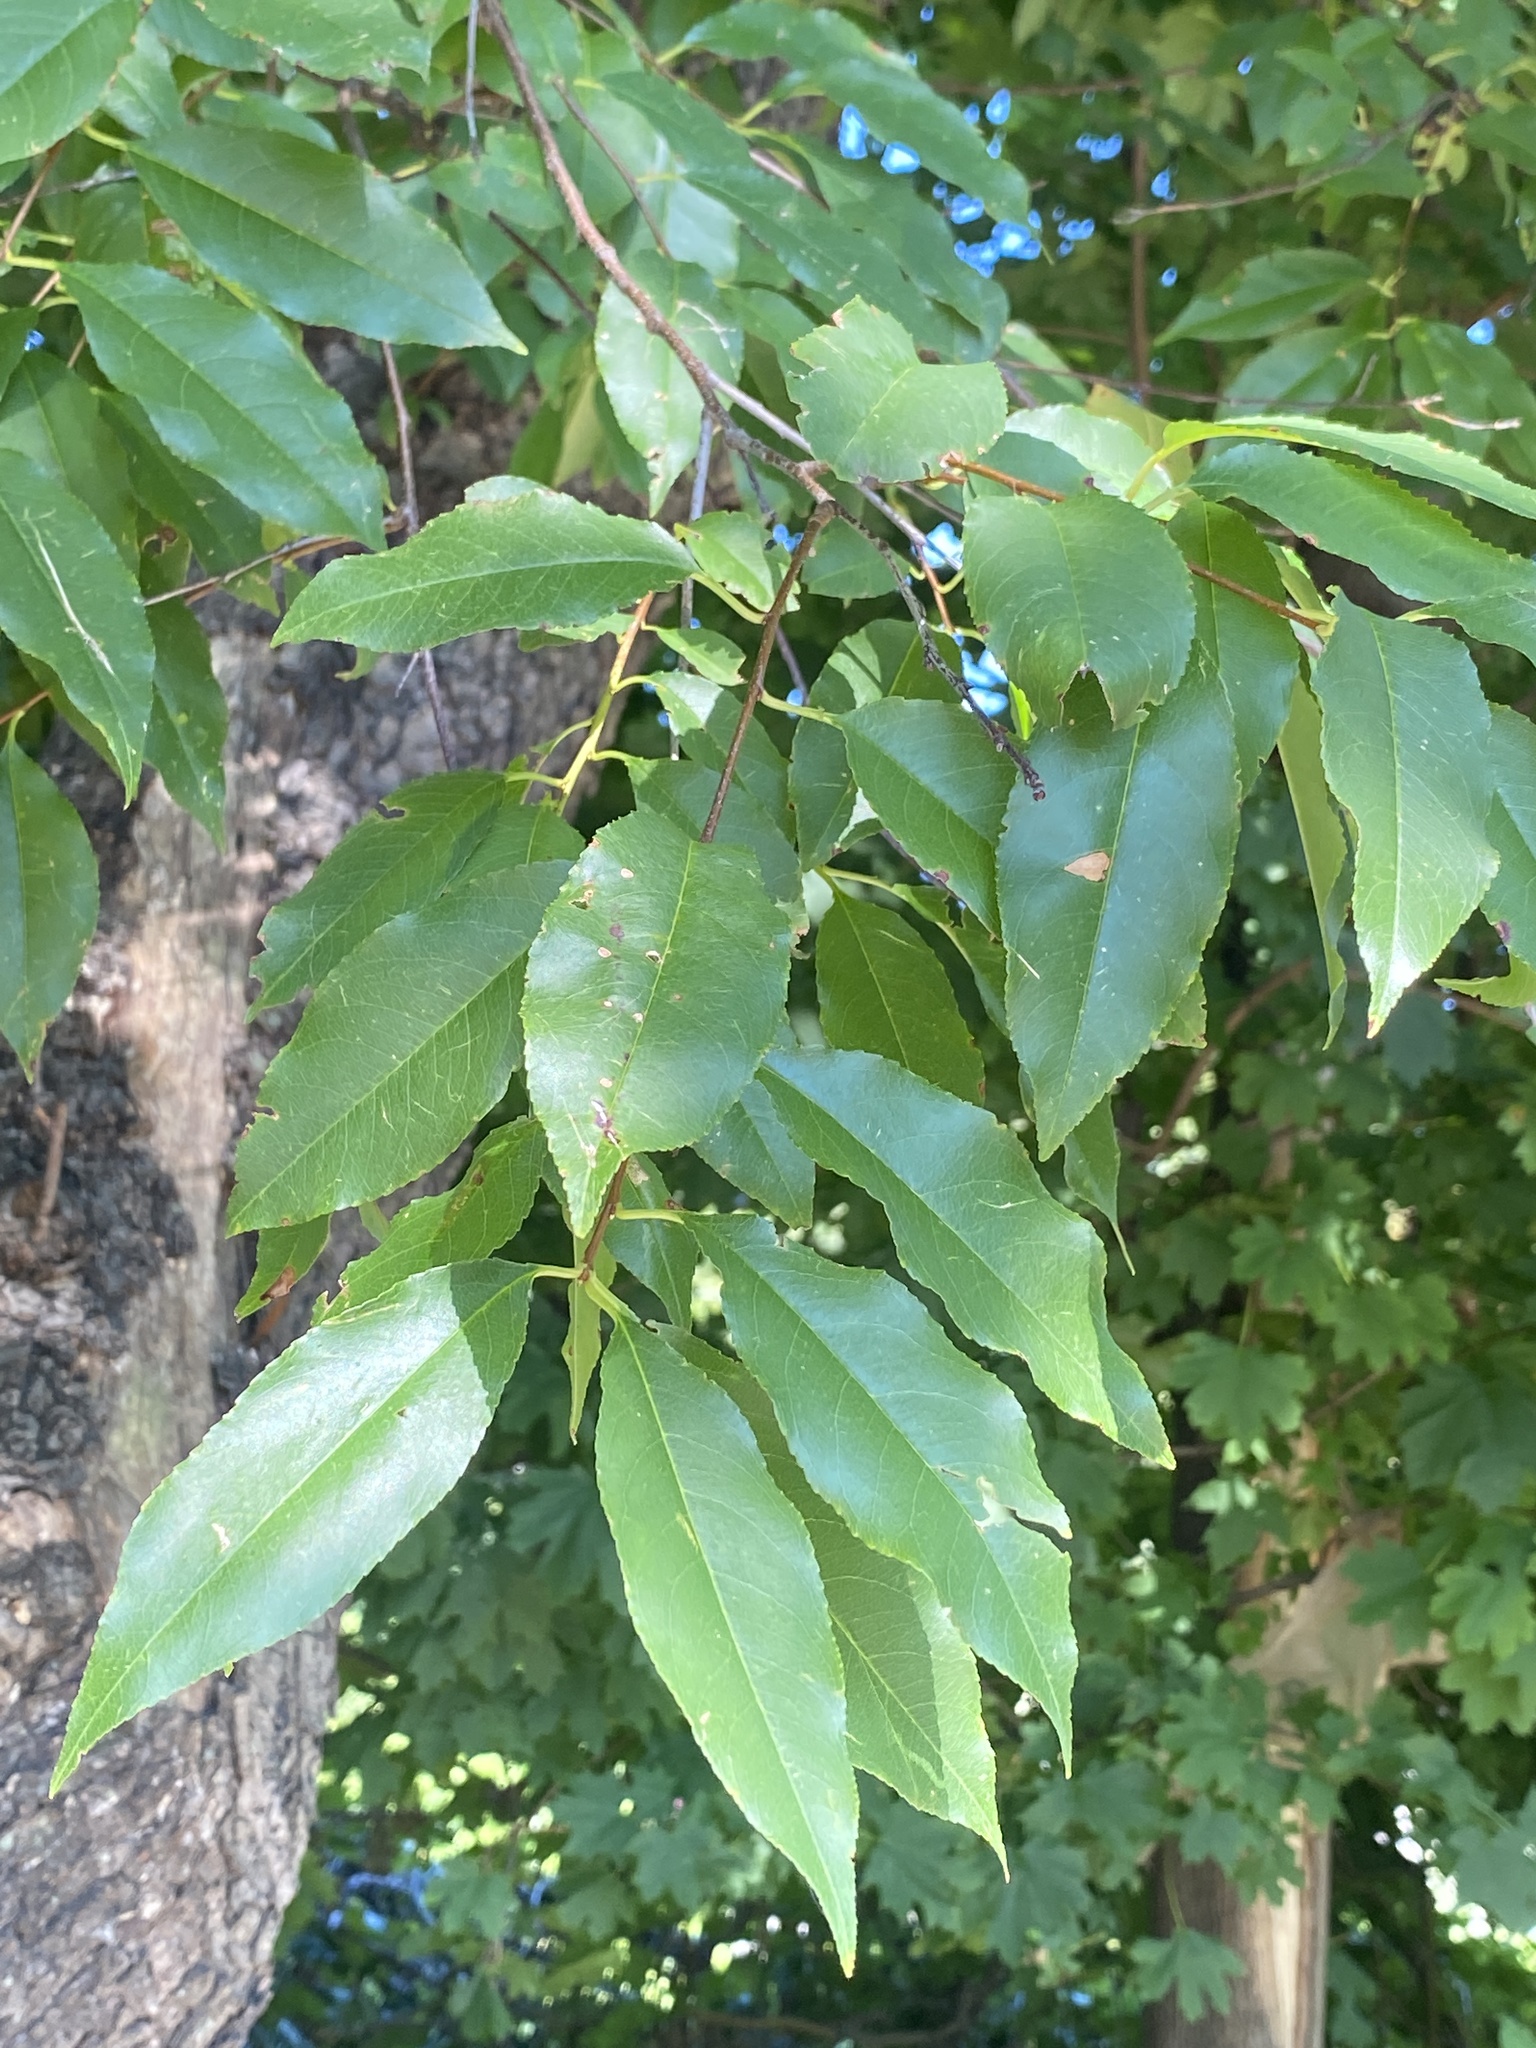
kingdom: Plantae
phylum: Tracheophyta
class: Magnoliopsida
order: Rosales
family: Rosaceae
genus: Prunus
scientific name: Prunus serotina
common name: Black cherry
